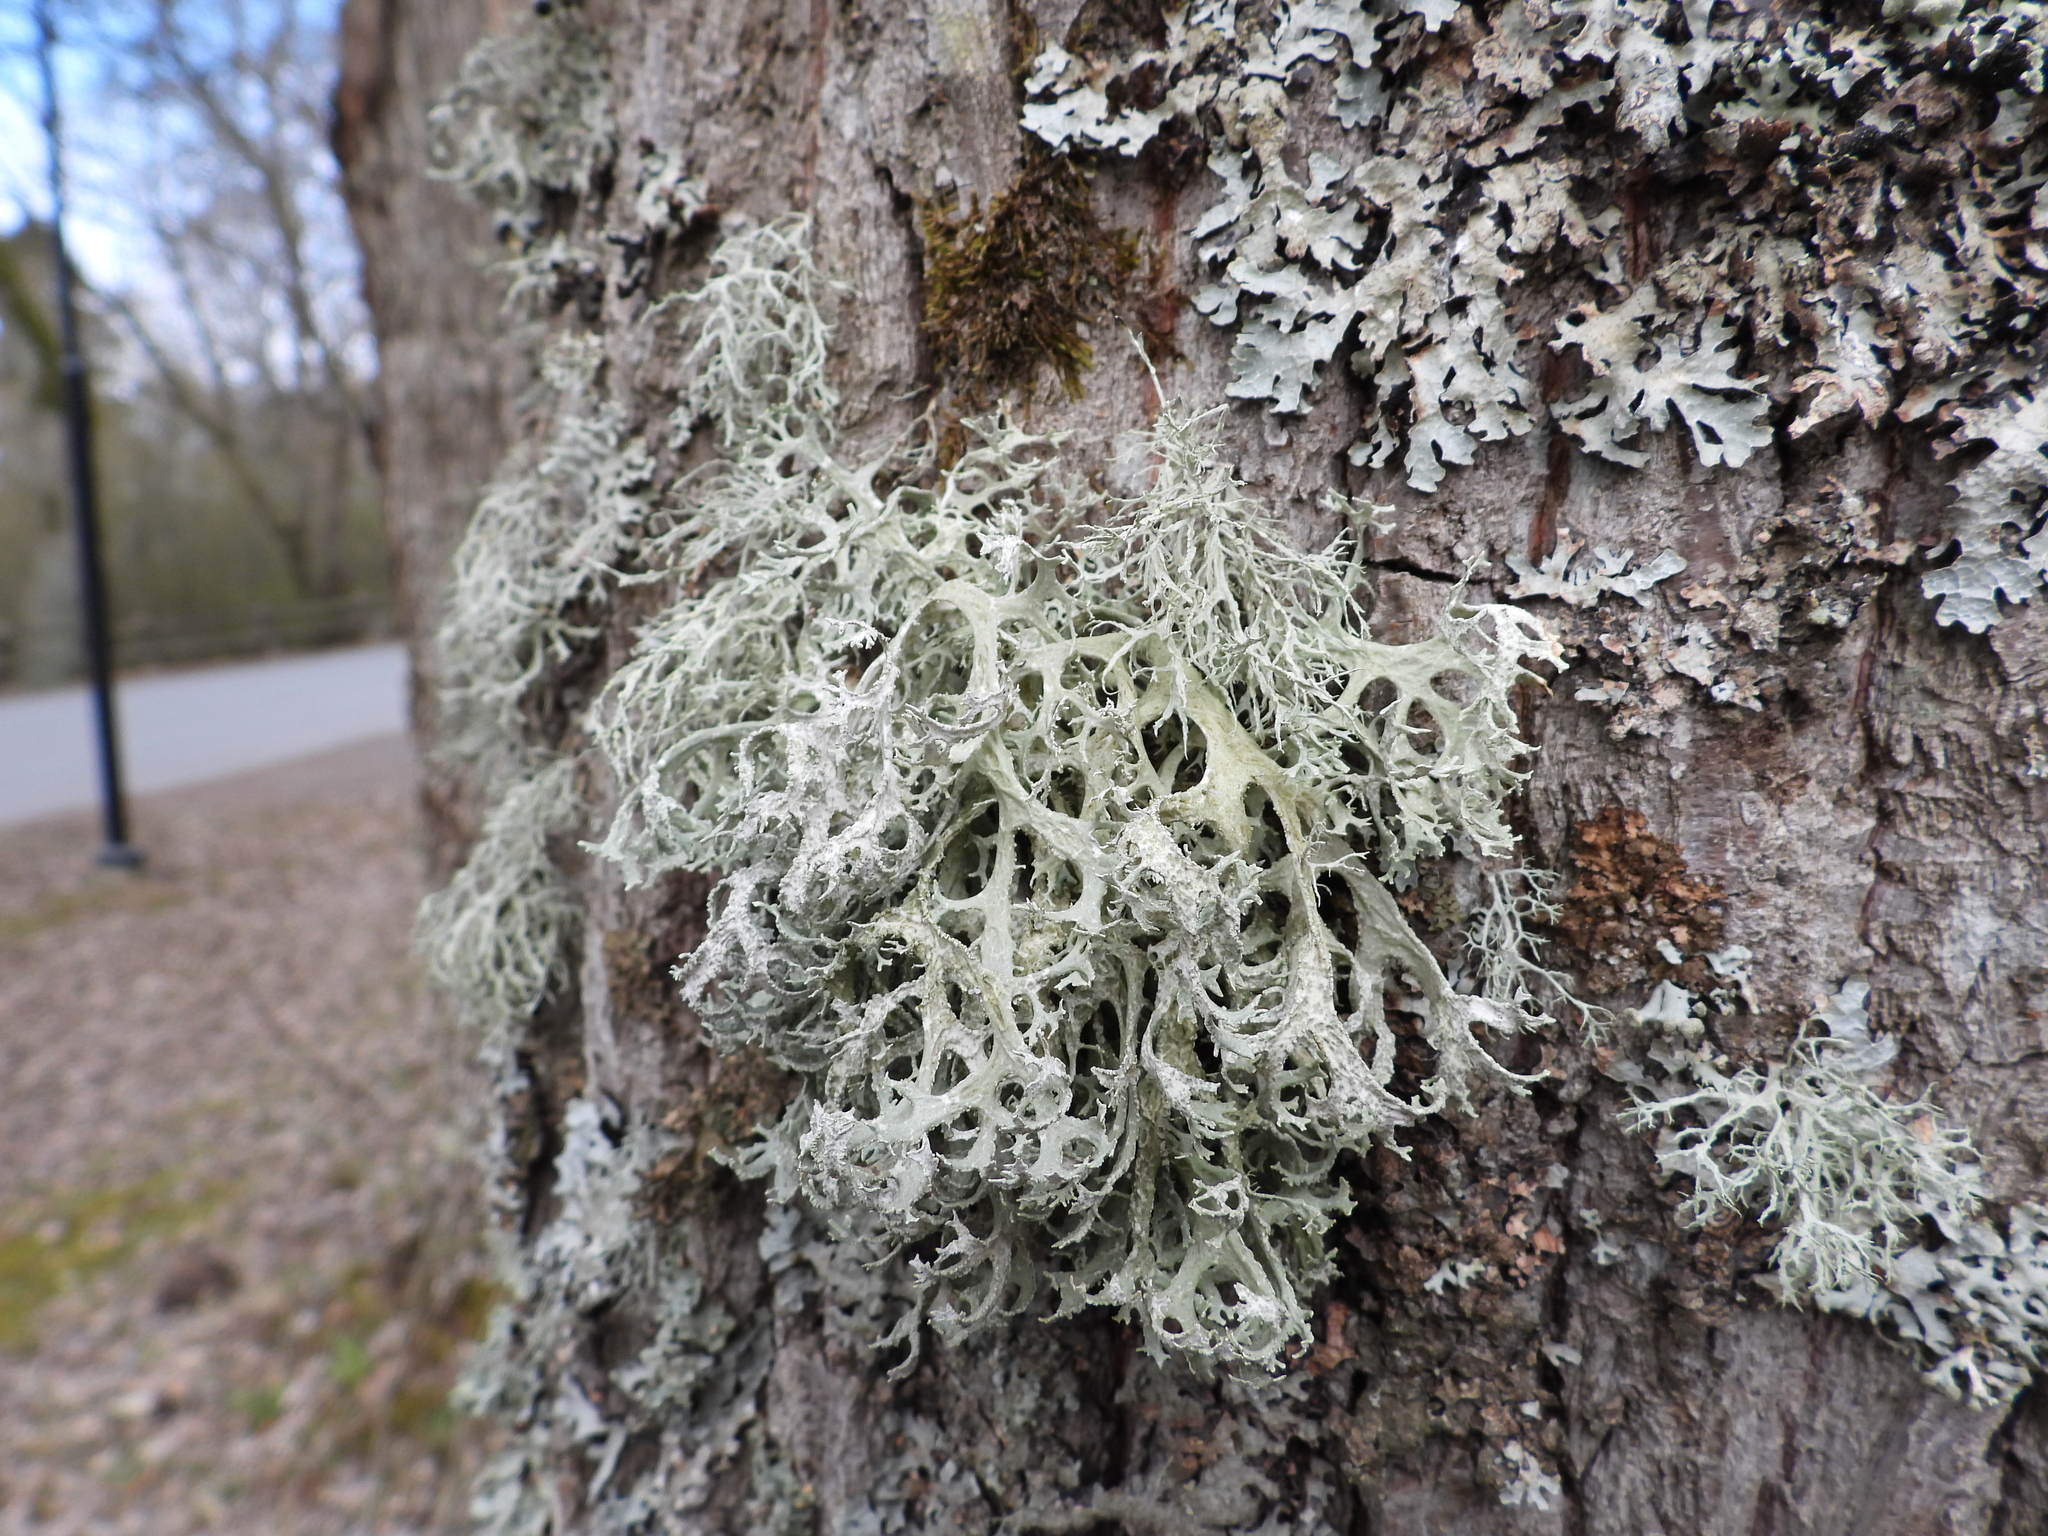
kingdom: Fungi
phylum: Ascomycota
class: Lecanoromycetes
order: Lecanorales
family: Parmeliaceae
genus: Evernia
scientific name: Evernia prunastri
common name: Oak moss
